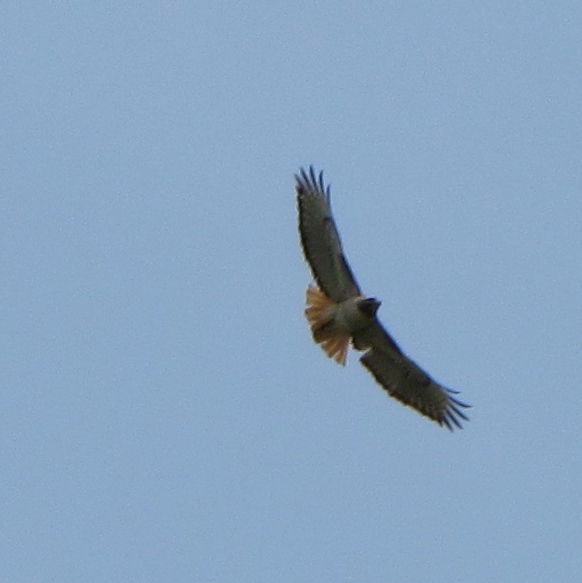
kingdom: Animalia
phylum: Chordata
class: Aves
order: Accipitriformes
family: Accipitridae
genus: Buteo
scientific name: Buteo jamaicensis
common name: Red-tailed hawk
